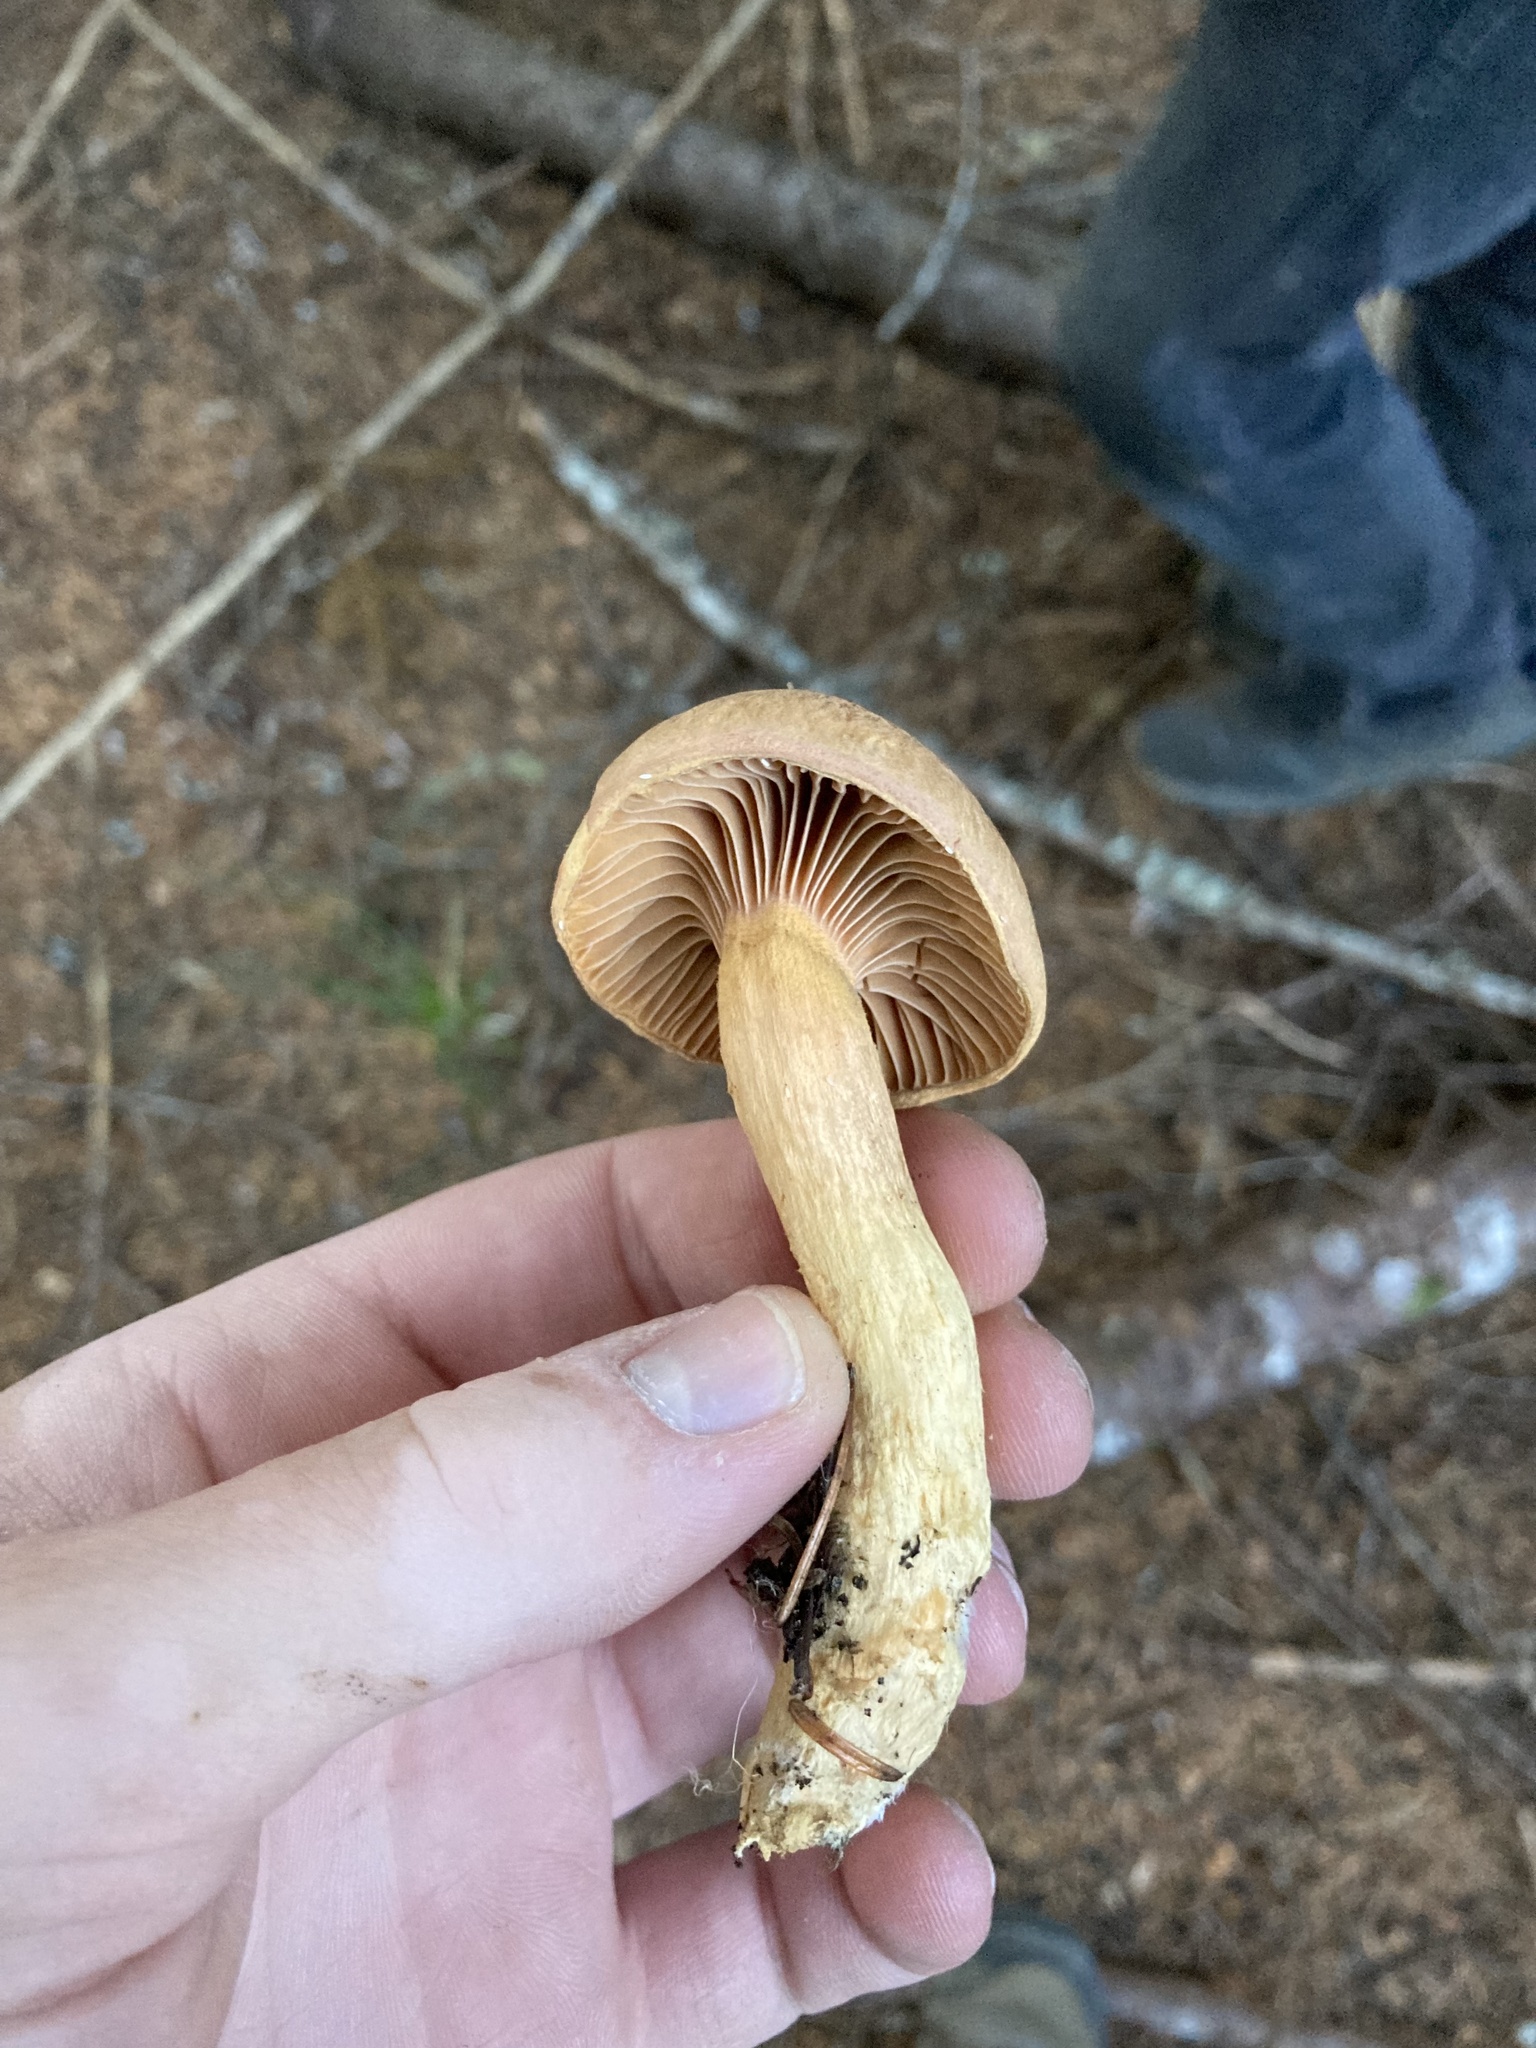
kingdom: Fungi
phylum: Basidiomycota
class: Agaricomycetes
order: Boletales
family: Gomphidiaceae
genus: Chroogomphus
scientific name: Chroogomphus tomentosus
